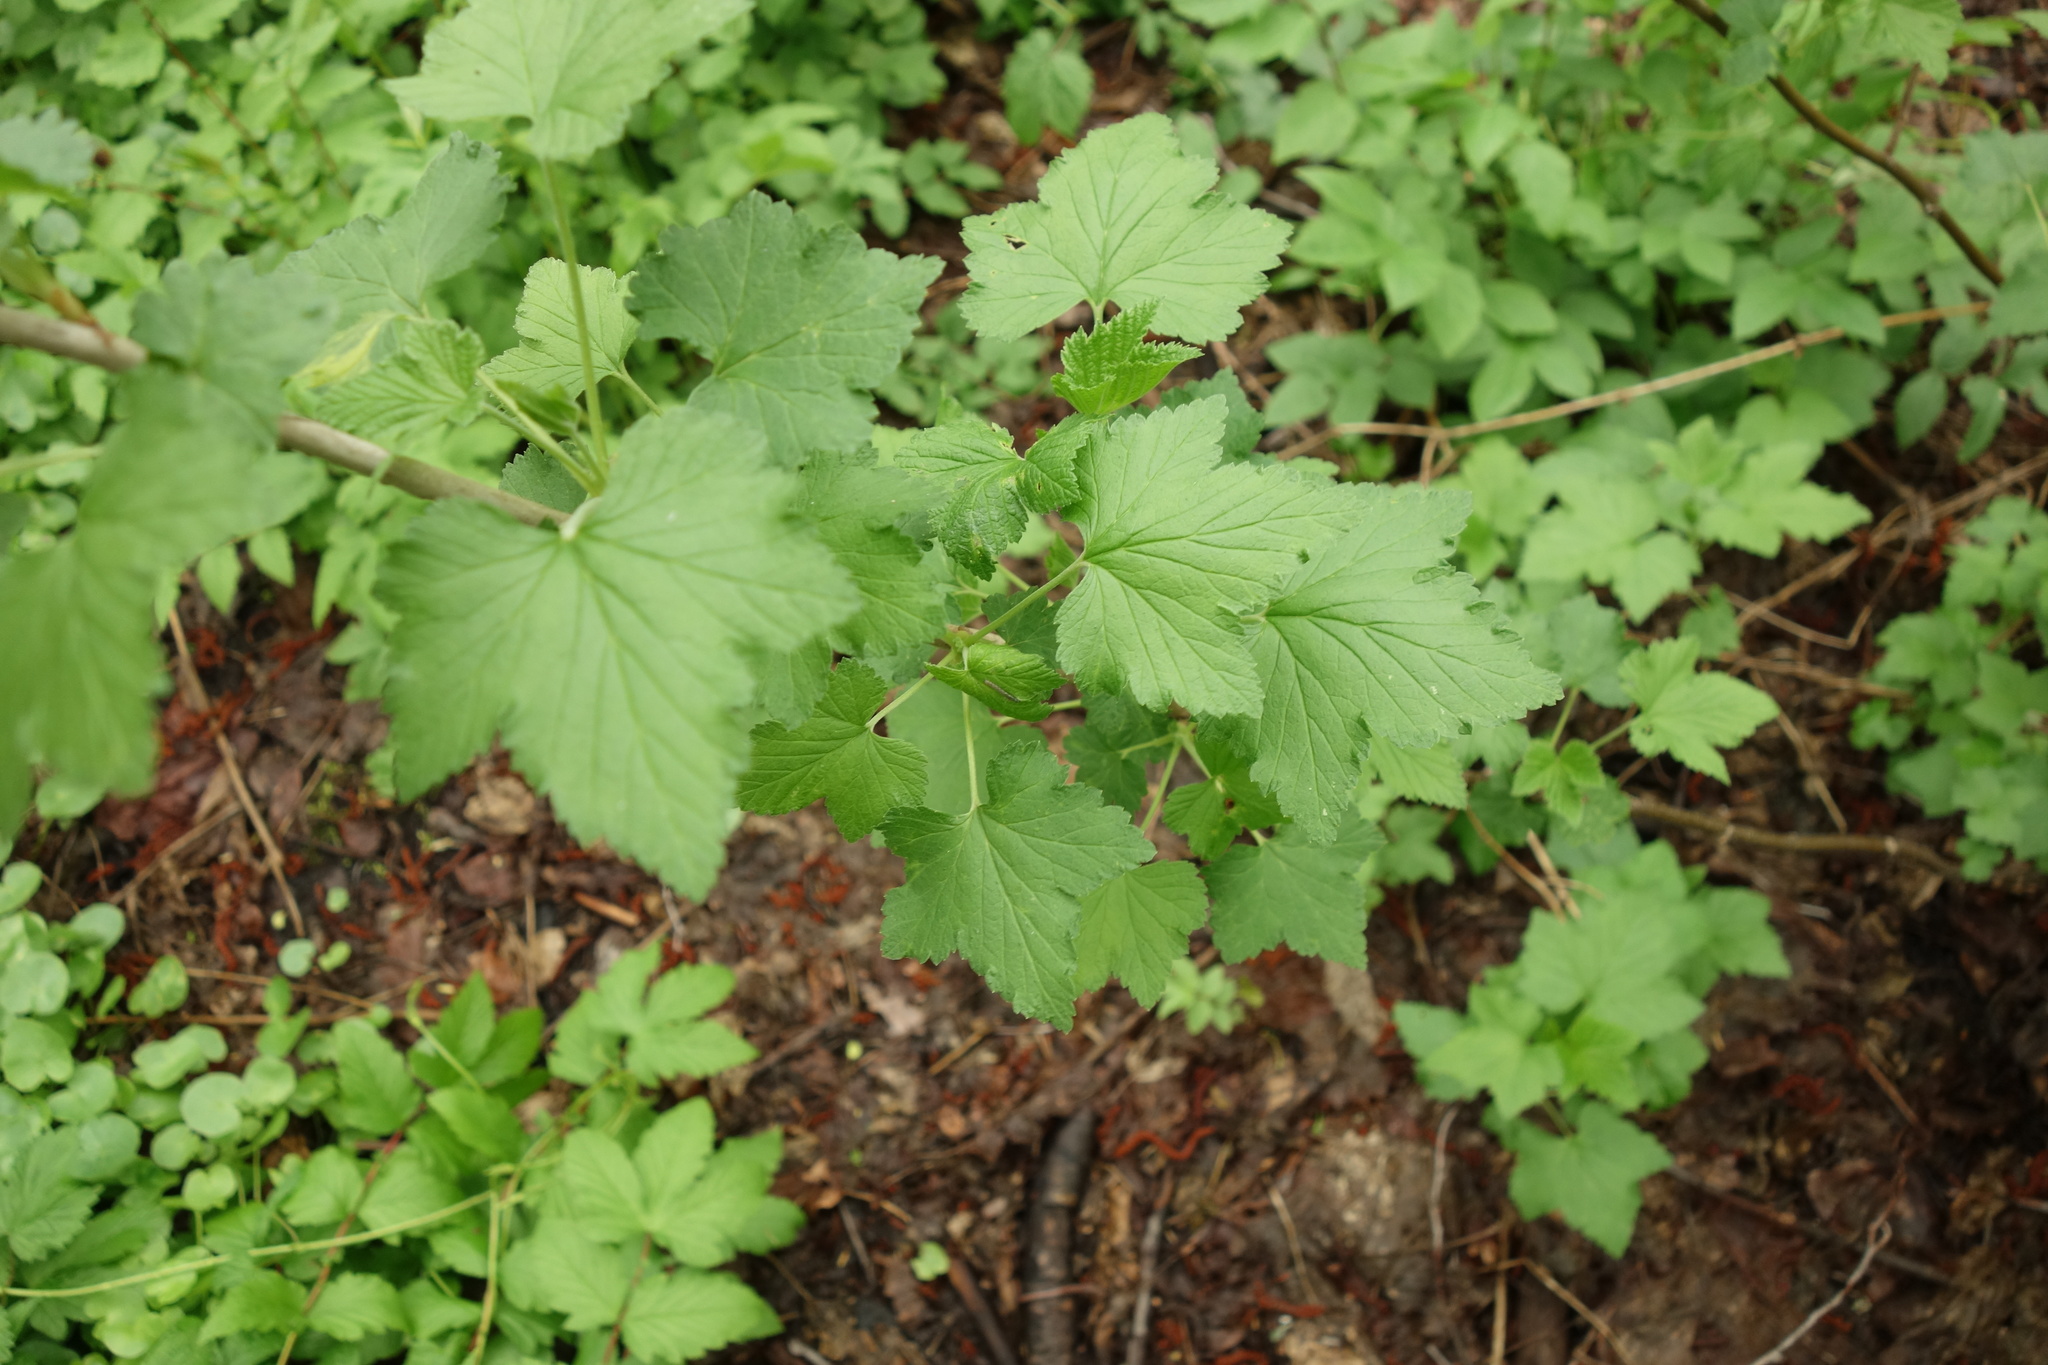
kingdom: Plantae
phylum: Tracheophyta
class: Magnoliopsida
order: Saxifragales
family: Grossulariaceae
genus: Ribes
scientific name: Ribes nigrum
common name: Black currant
